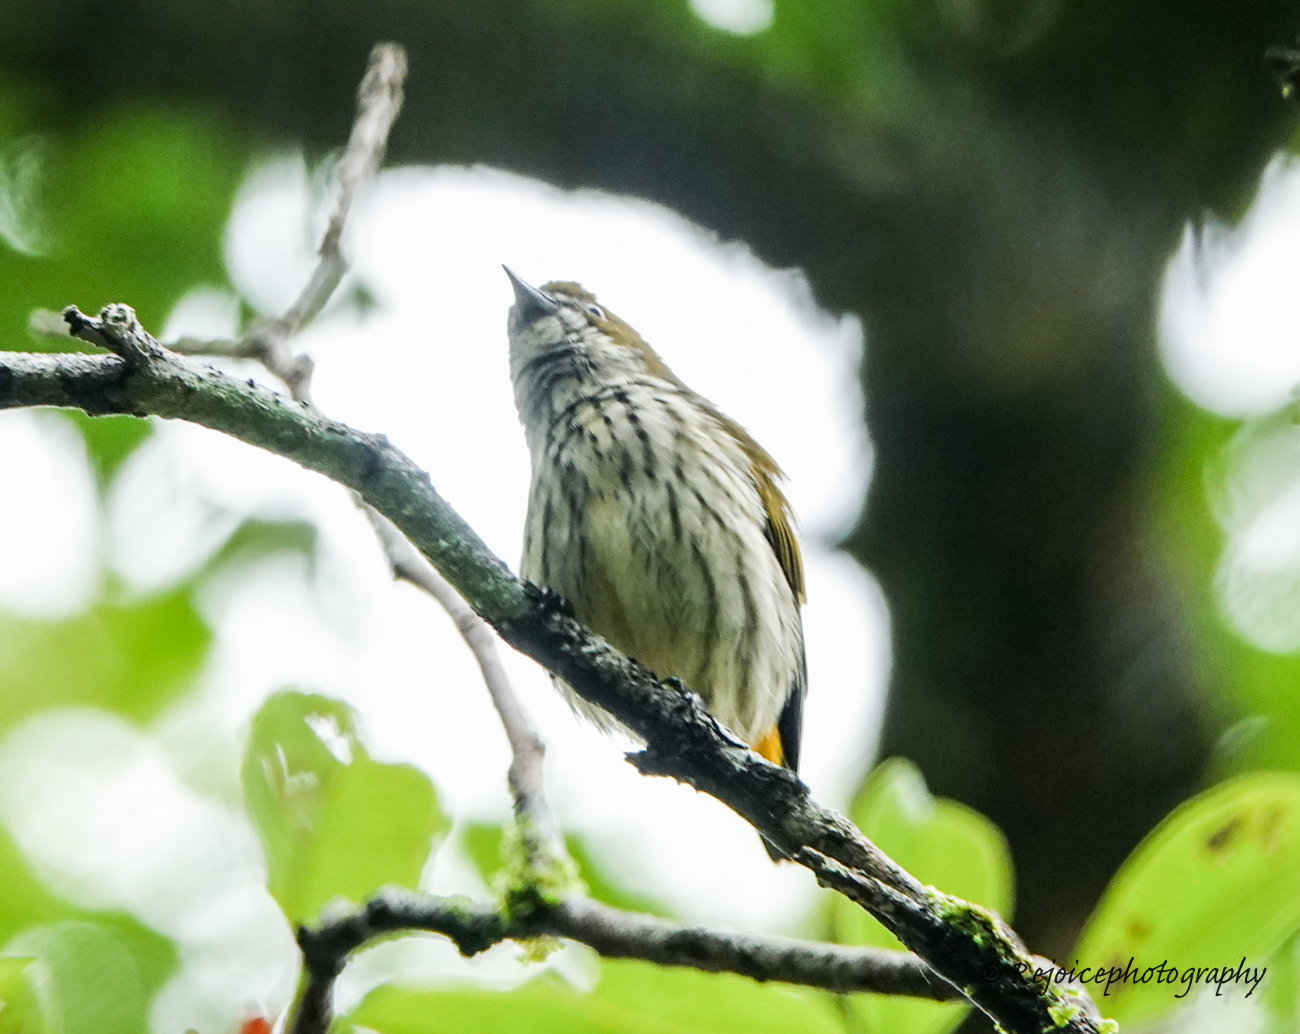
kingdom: Animalia
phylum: Chordata
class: Aves
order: Passeriformes
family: Dicaeidae
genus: Dicaeum
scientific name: Dicaeum chrysorrheum
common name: Yellow-vented flowerpecker
